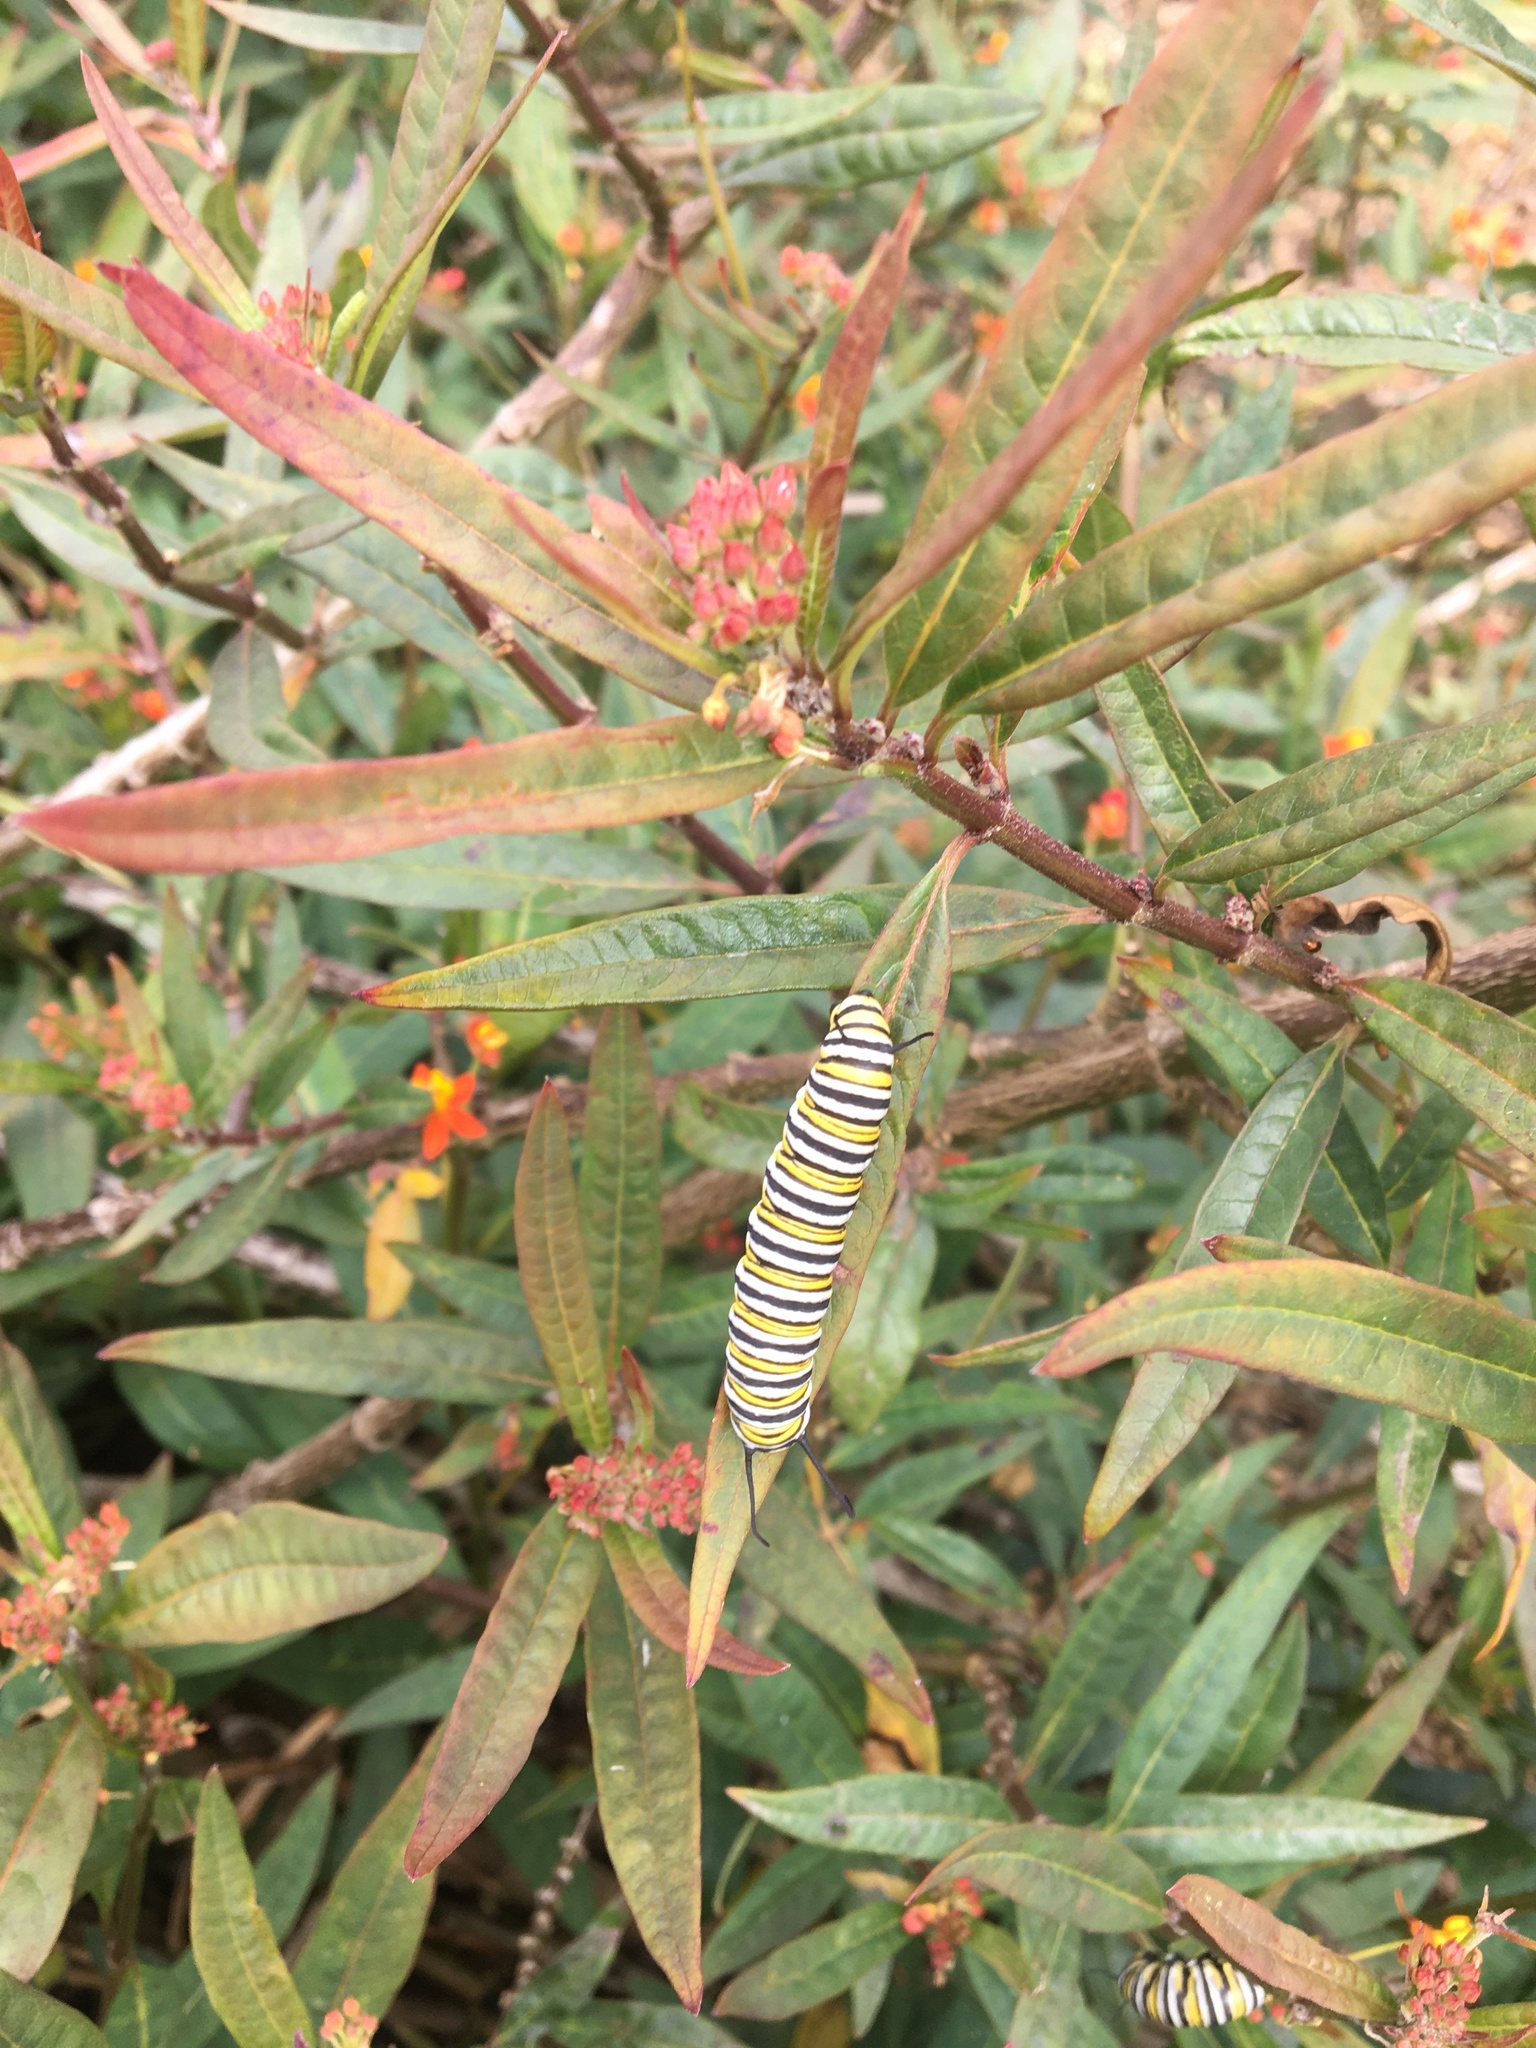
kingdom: Animalia
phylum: Arthropoda
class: Insecta
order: Lepidoptera
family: Nymphalidae
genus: Danaus
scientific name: Danaus plexippus
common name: Monarch
